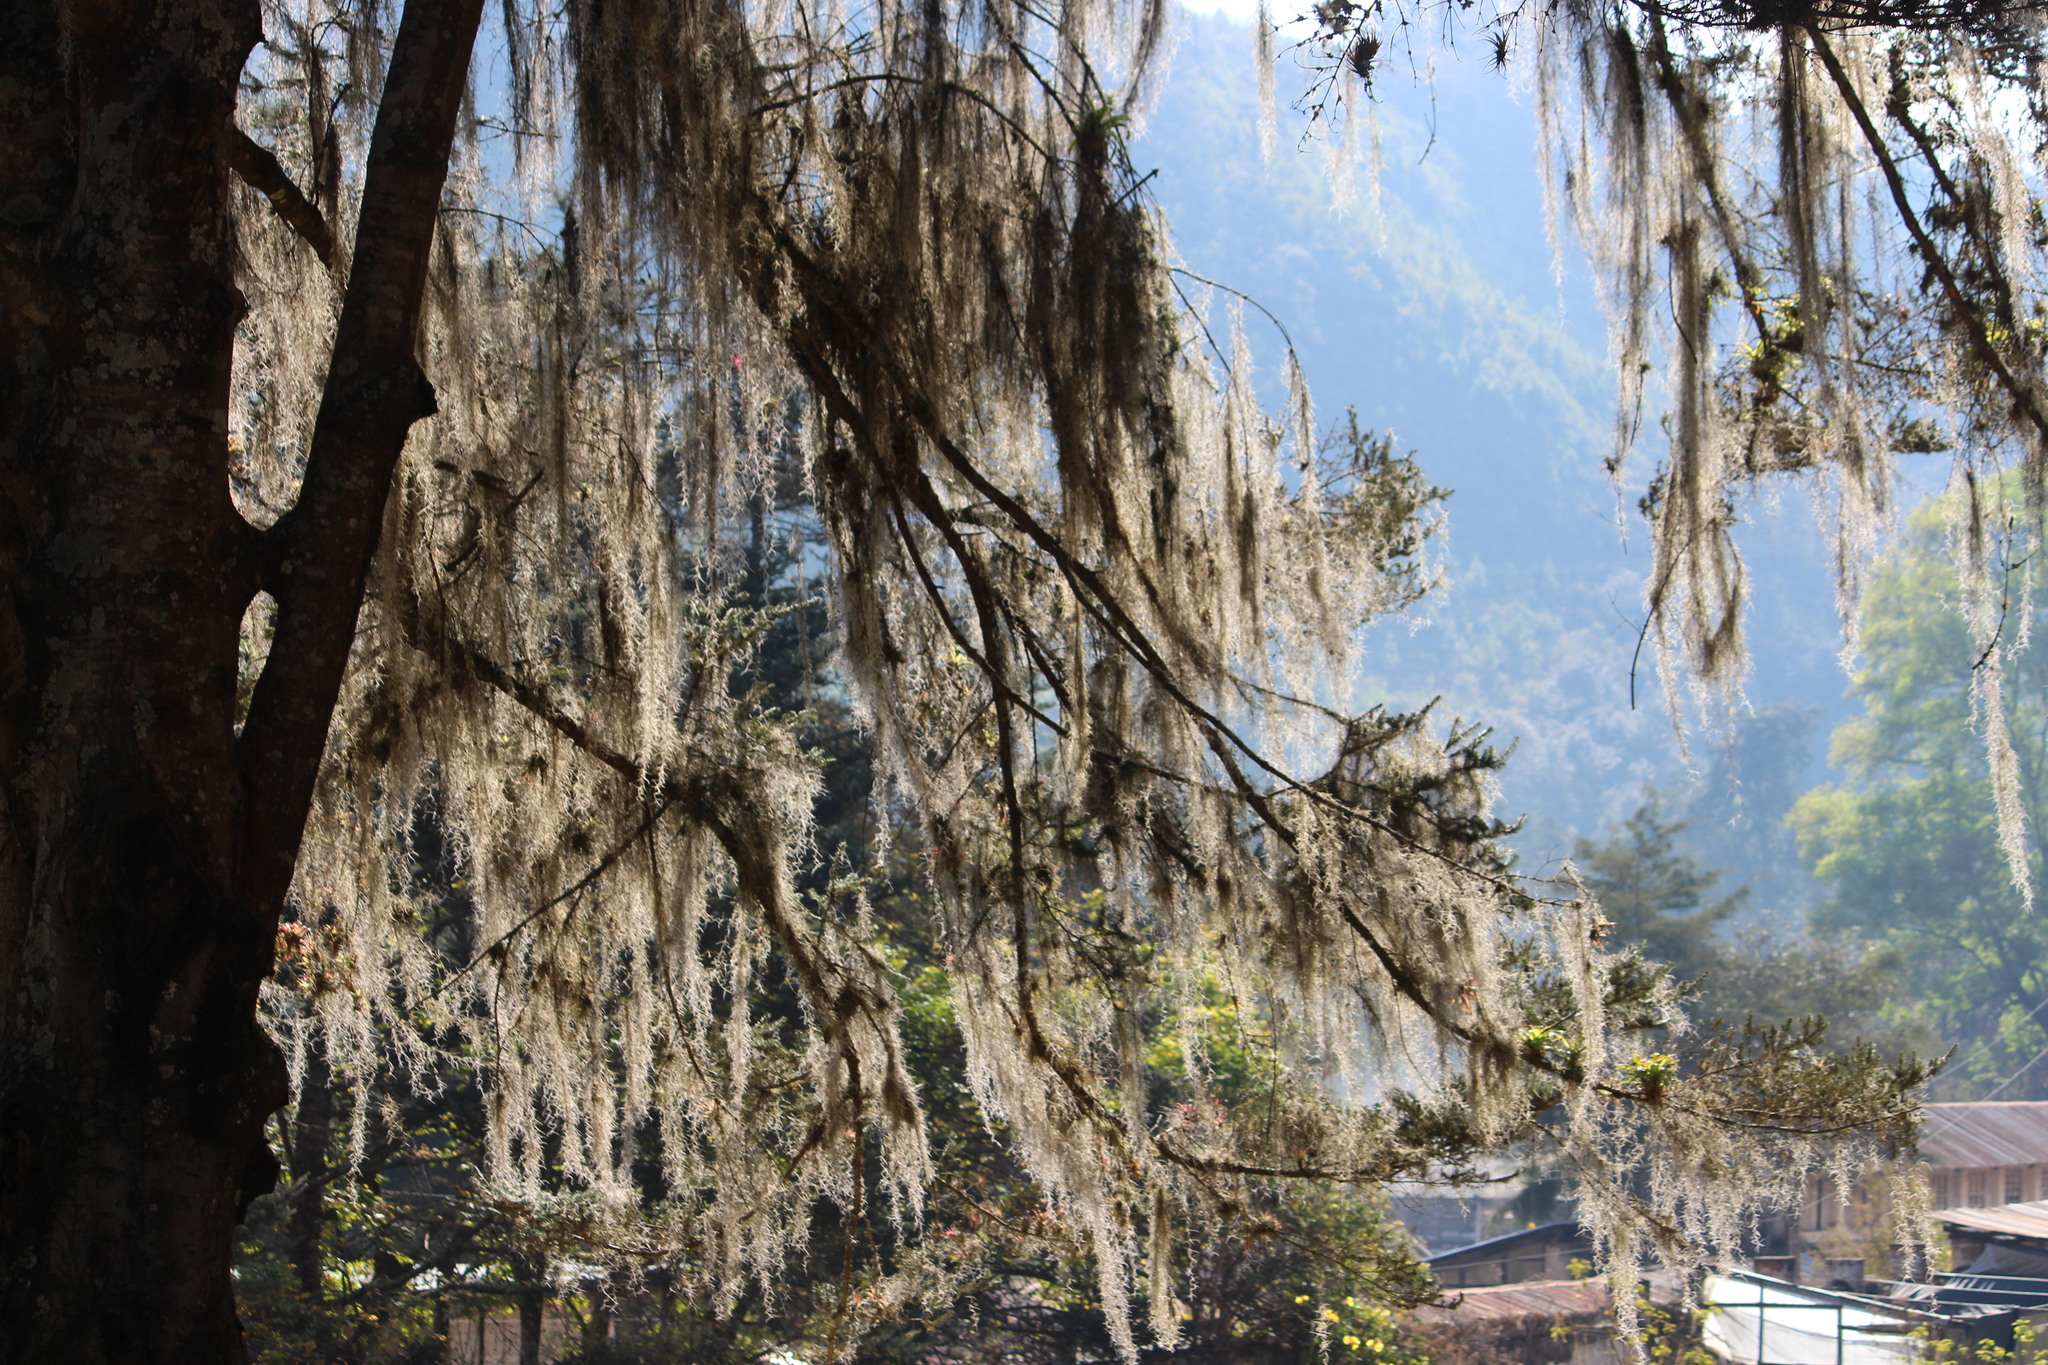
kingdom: Plantae
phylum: Tracheophyta
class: Liliopsida
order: Poales
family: Bromeliaceae
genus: Tillandsia
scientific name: Tillandsia usneoides
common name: Spanish moss
